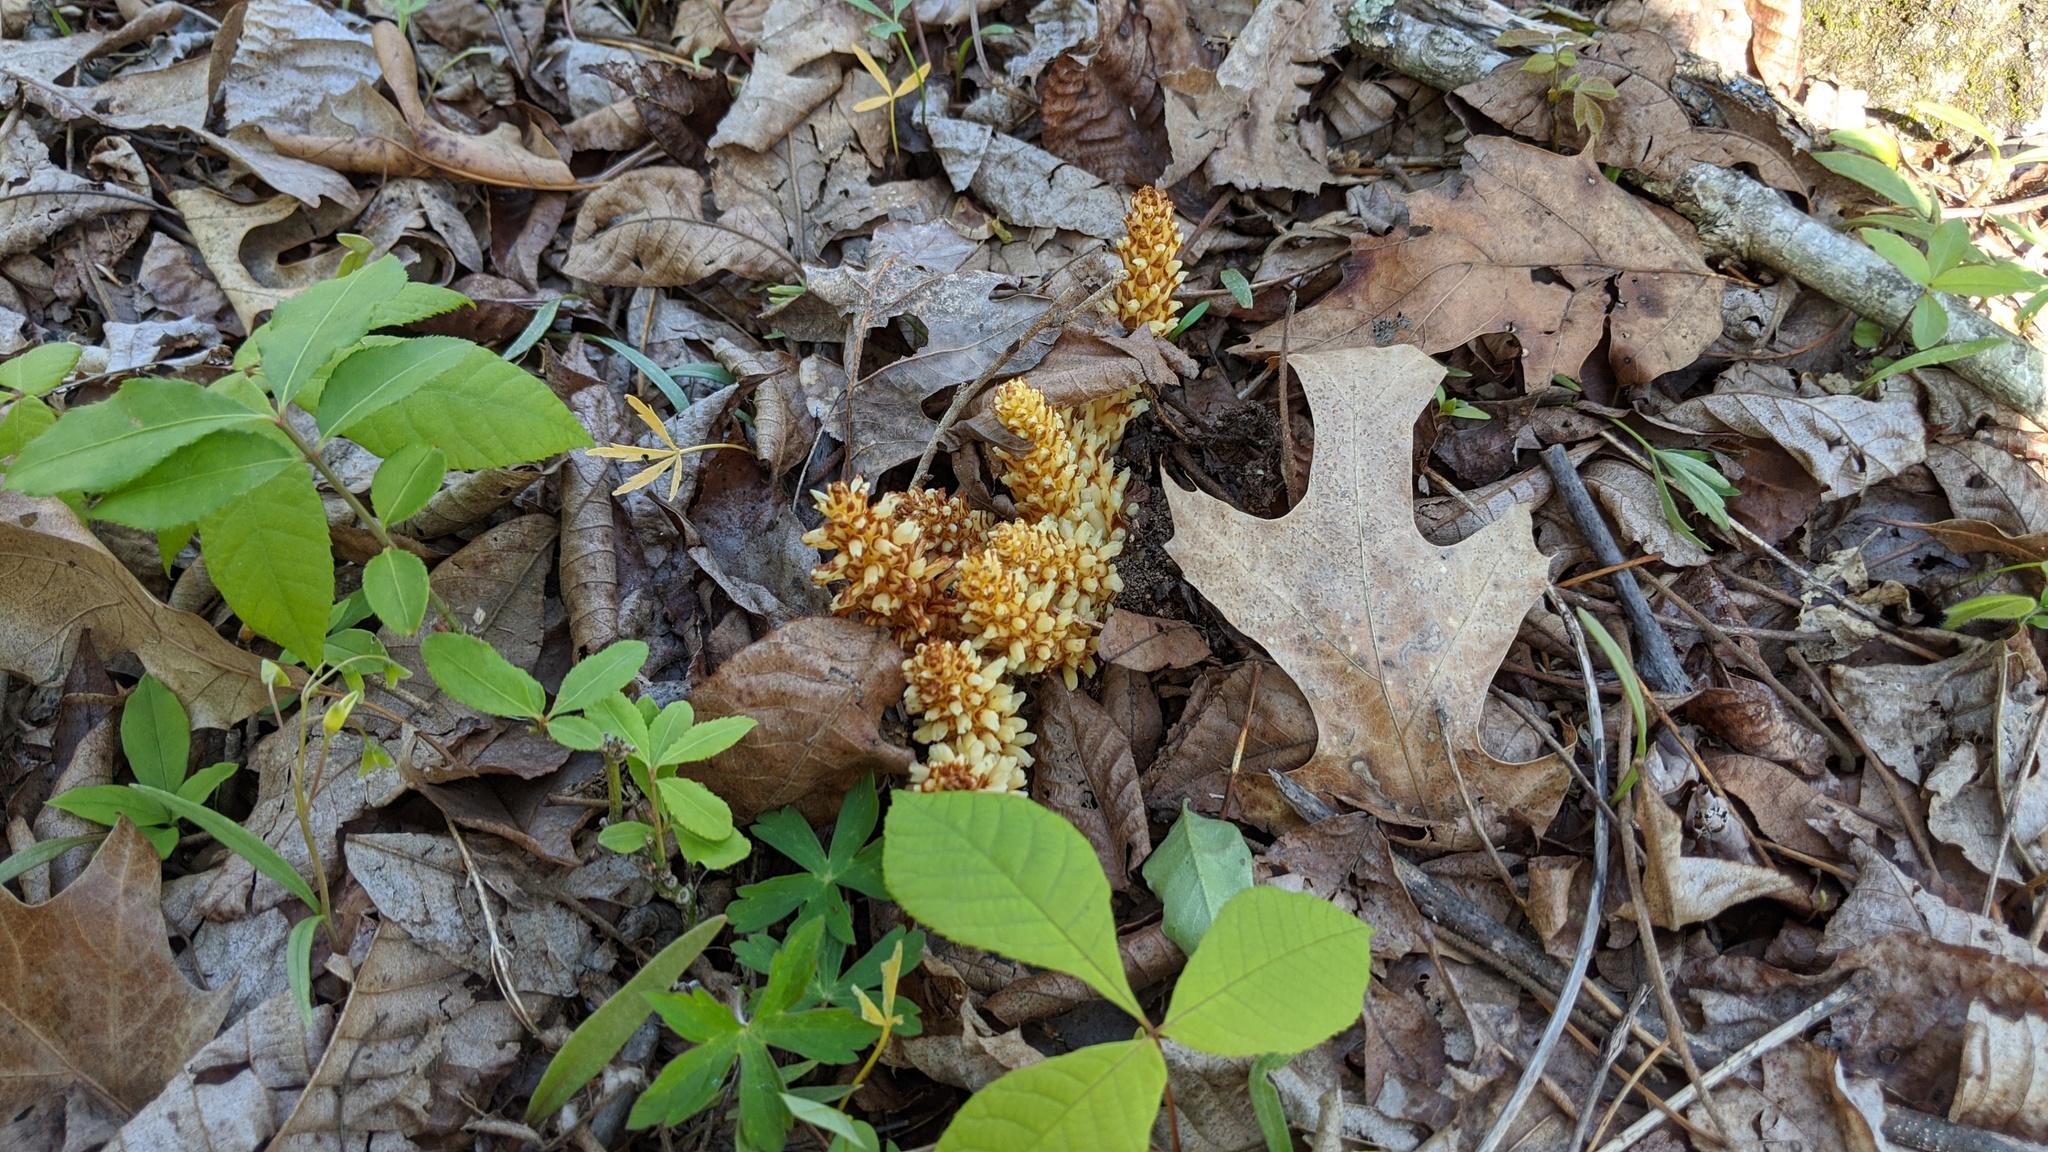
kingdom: Plantae
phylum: Tracheophyta
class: Magnoliopsida
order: Lamiales
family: Orobanchaceae
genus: Conopholis
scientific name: Conopholis americana
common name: American cancer-root
